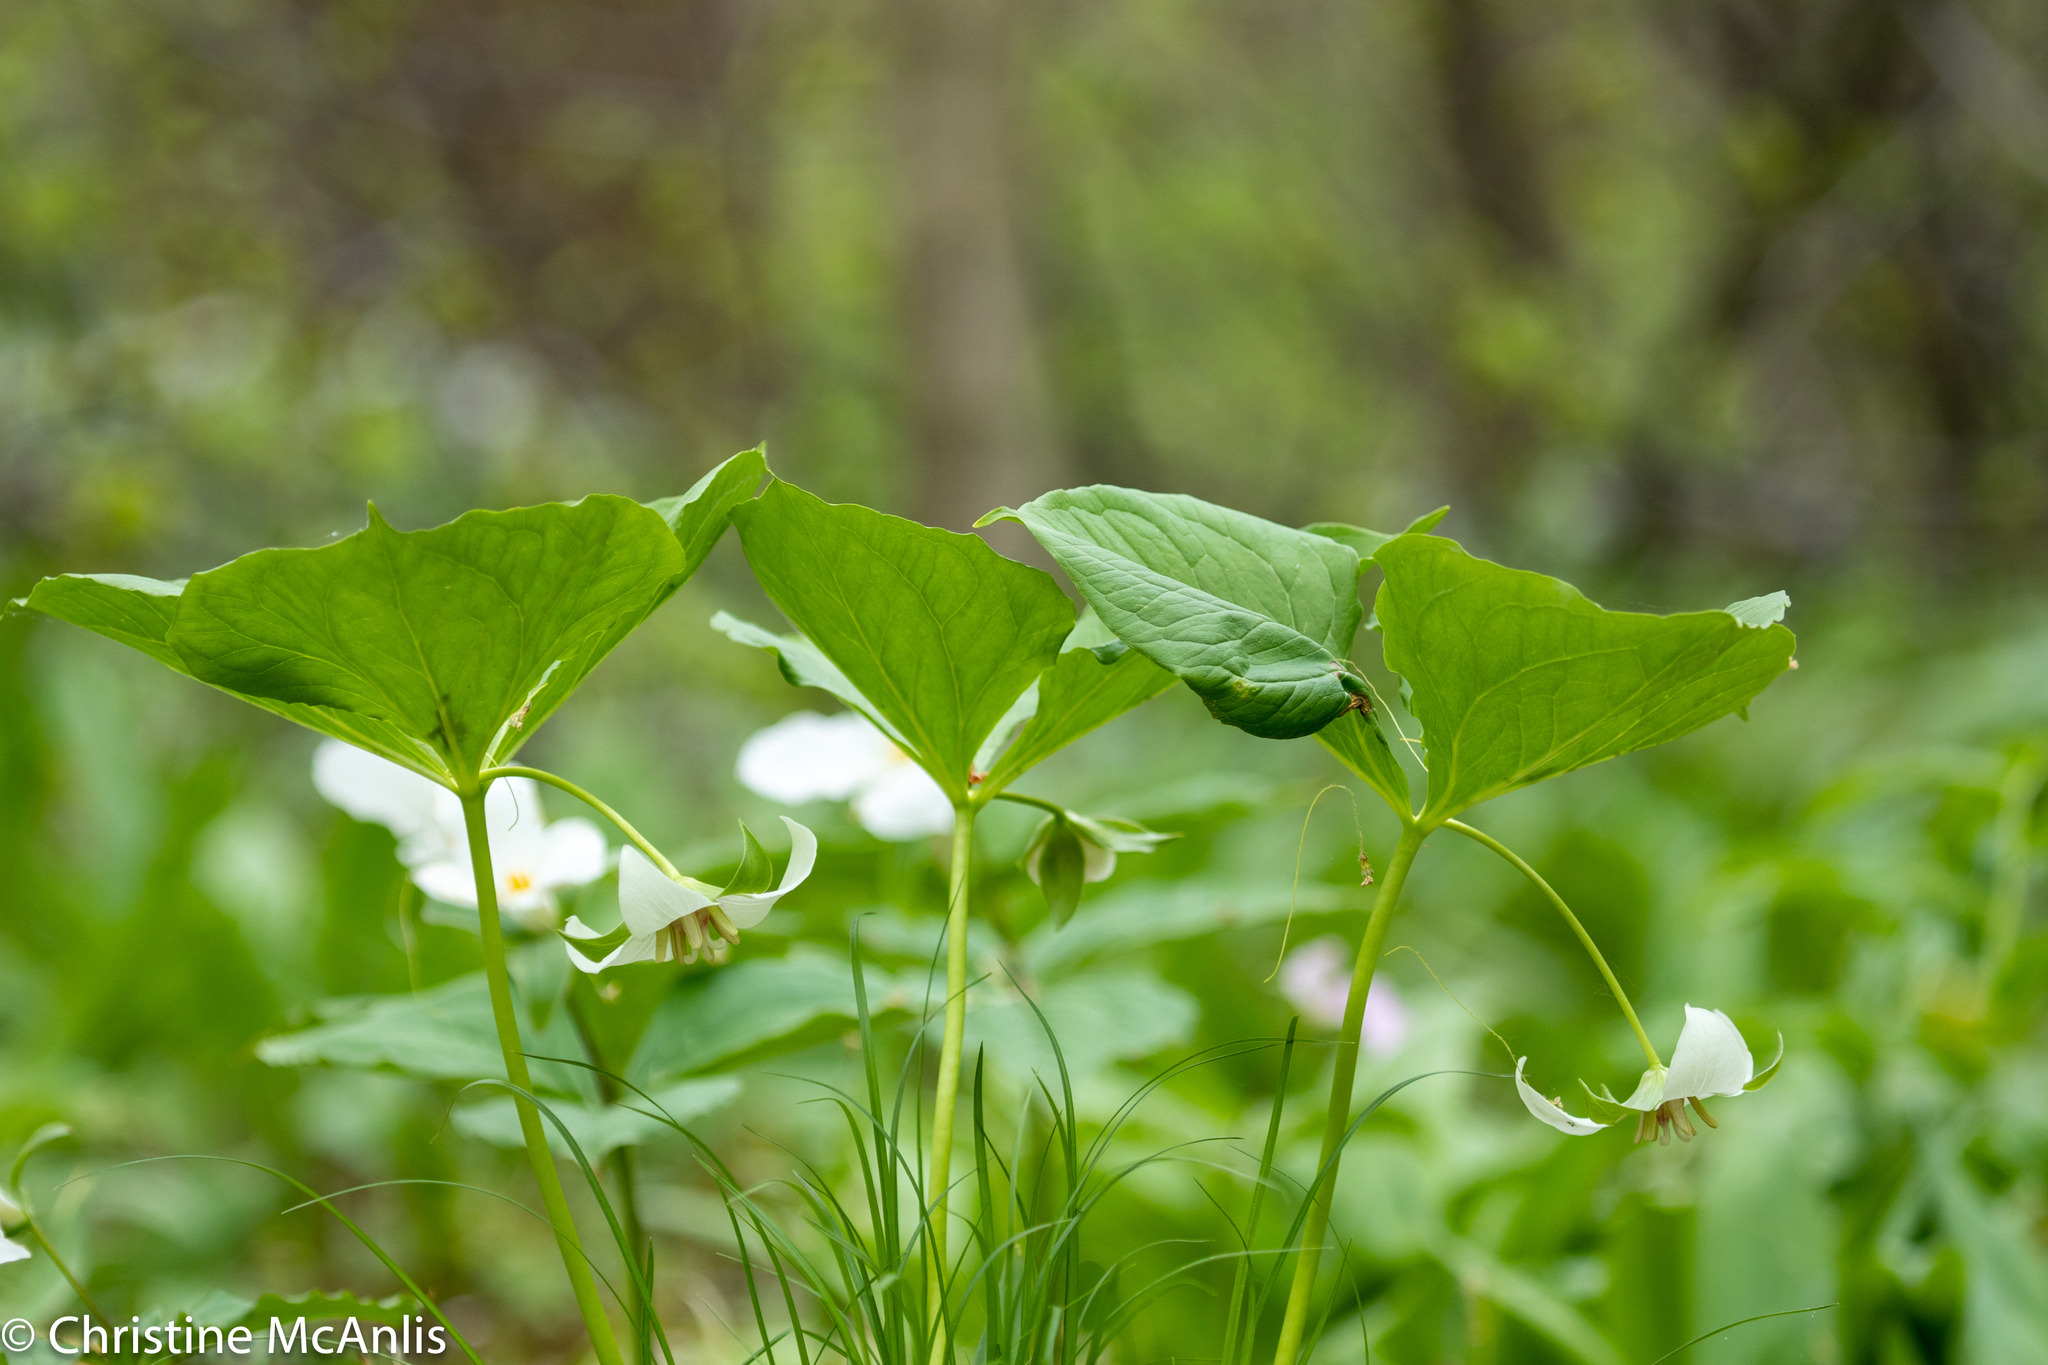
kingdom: Plantae
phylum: Tracheophyta
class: Liliopsida
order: Liliales
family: Melanthiaceae
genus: Trillium
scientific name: Trillium flexipes
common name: Drooping trillium
